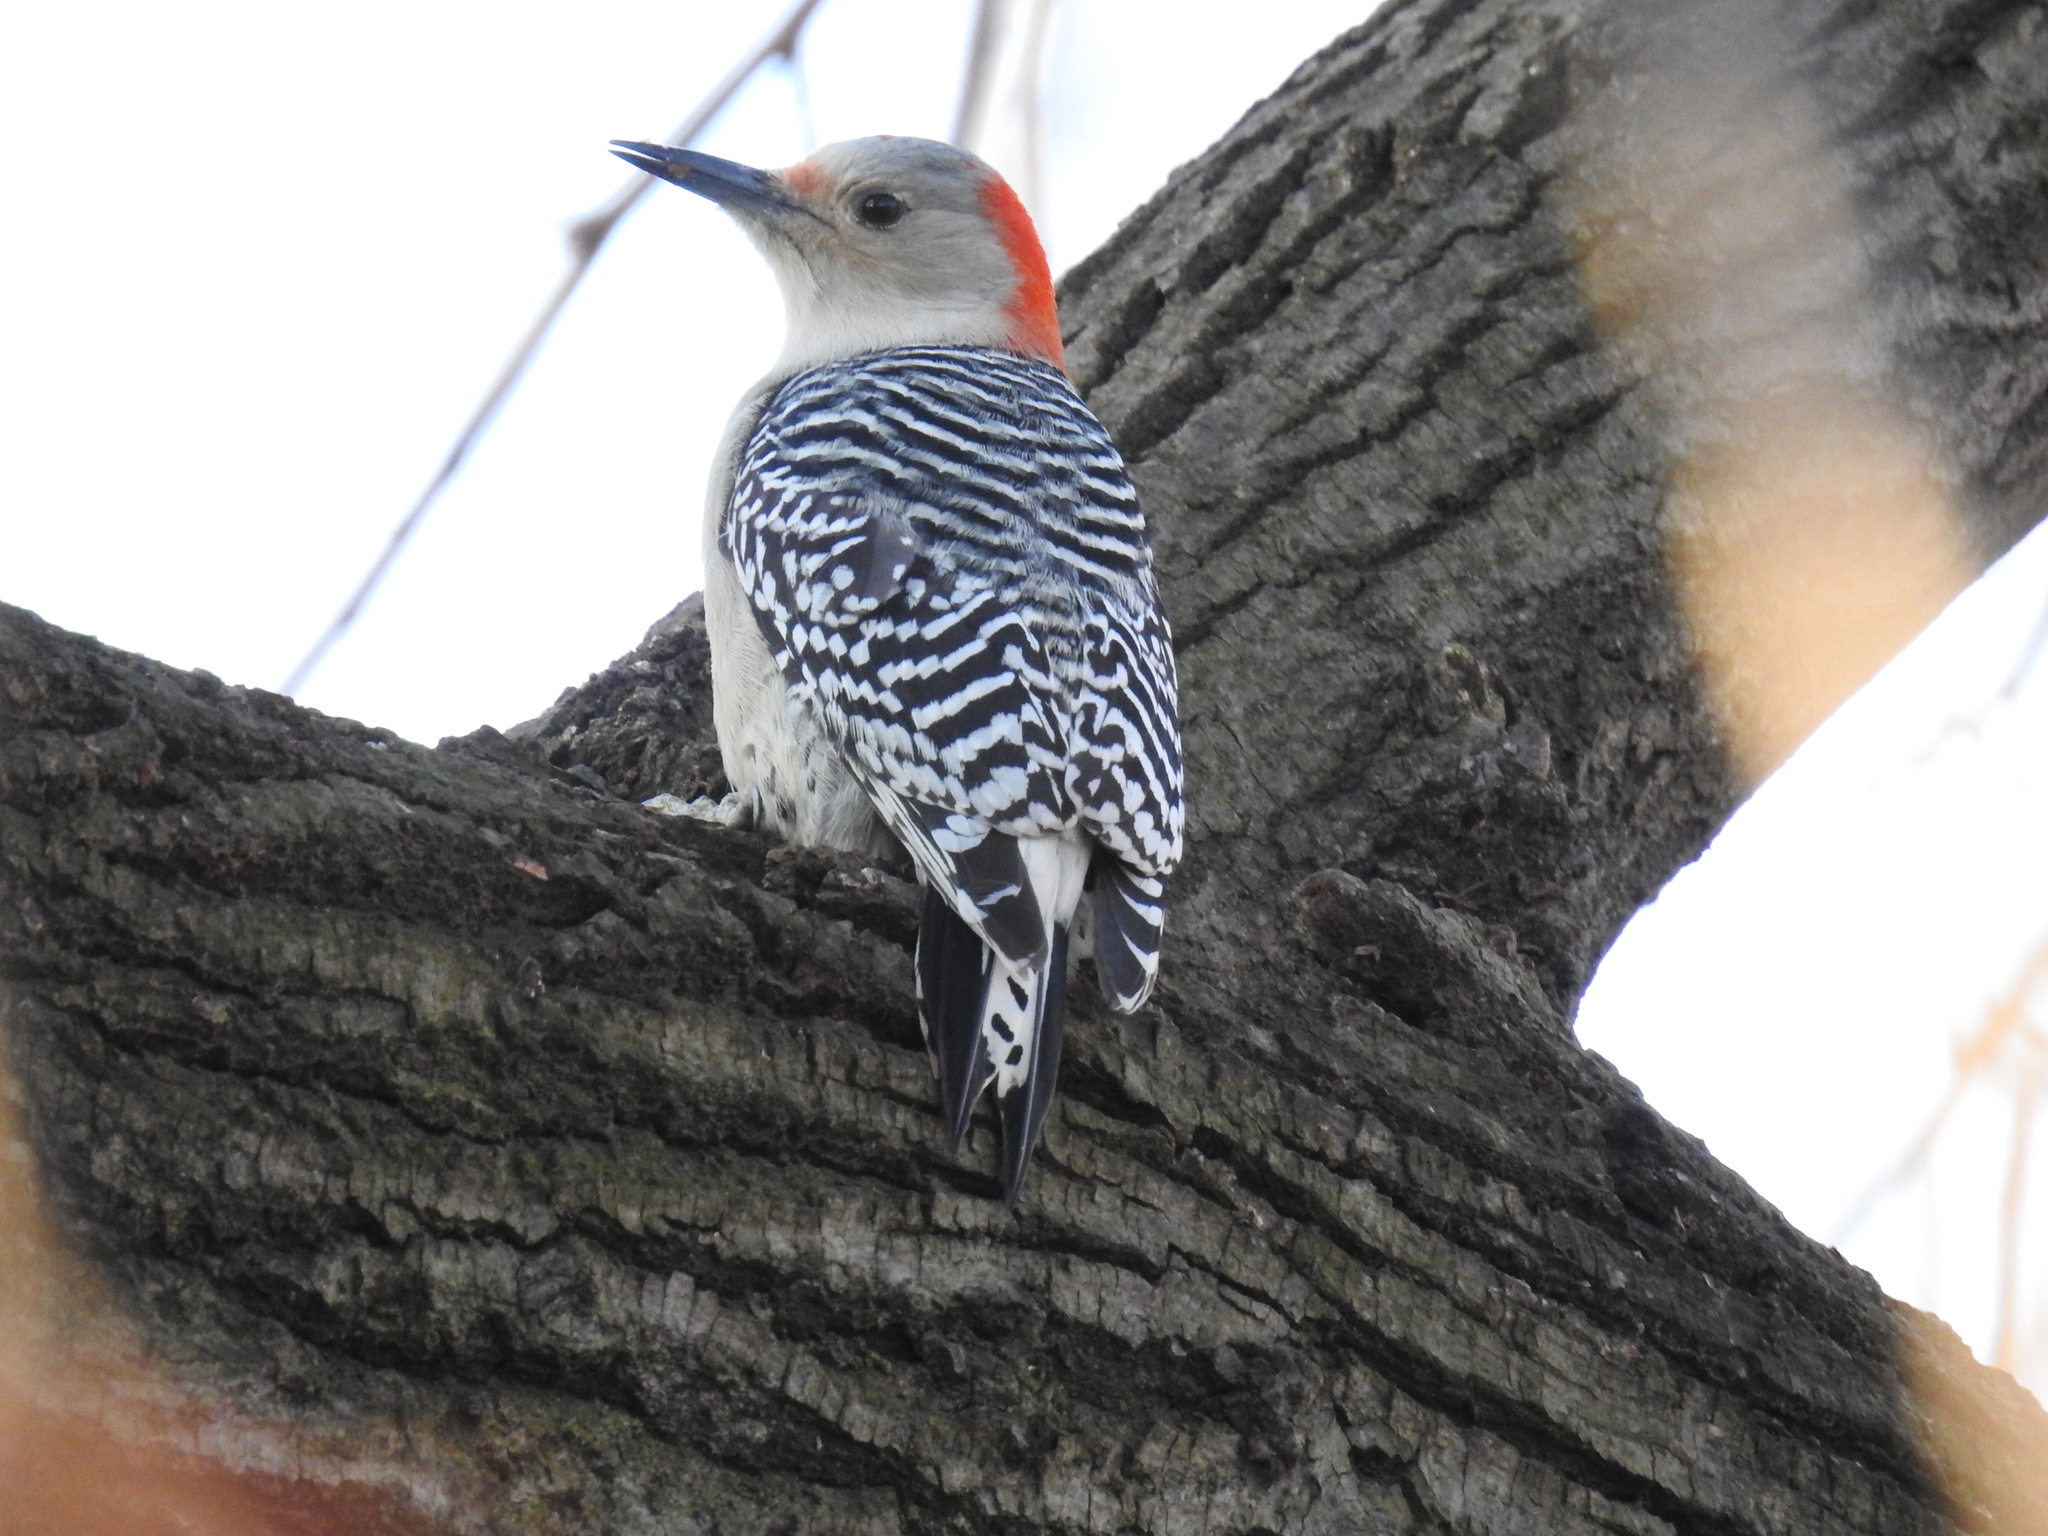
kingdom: Animalia
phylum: Chordata
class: Aves
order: Piciformes
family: Picidae
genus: Melanerpes
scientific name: Melanerpes carolinus
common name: Red-bellied woodpecker
